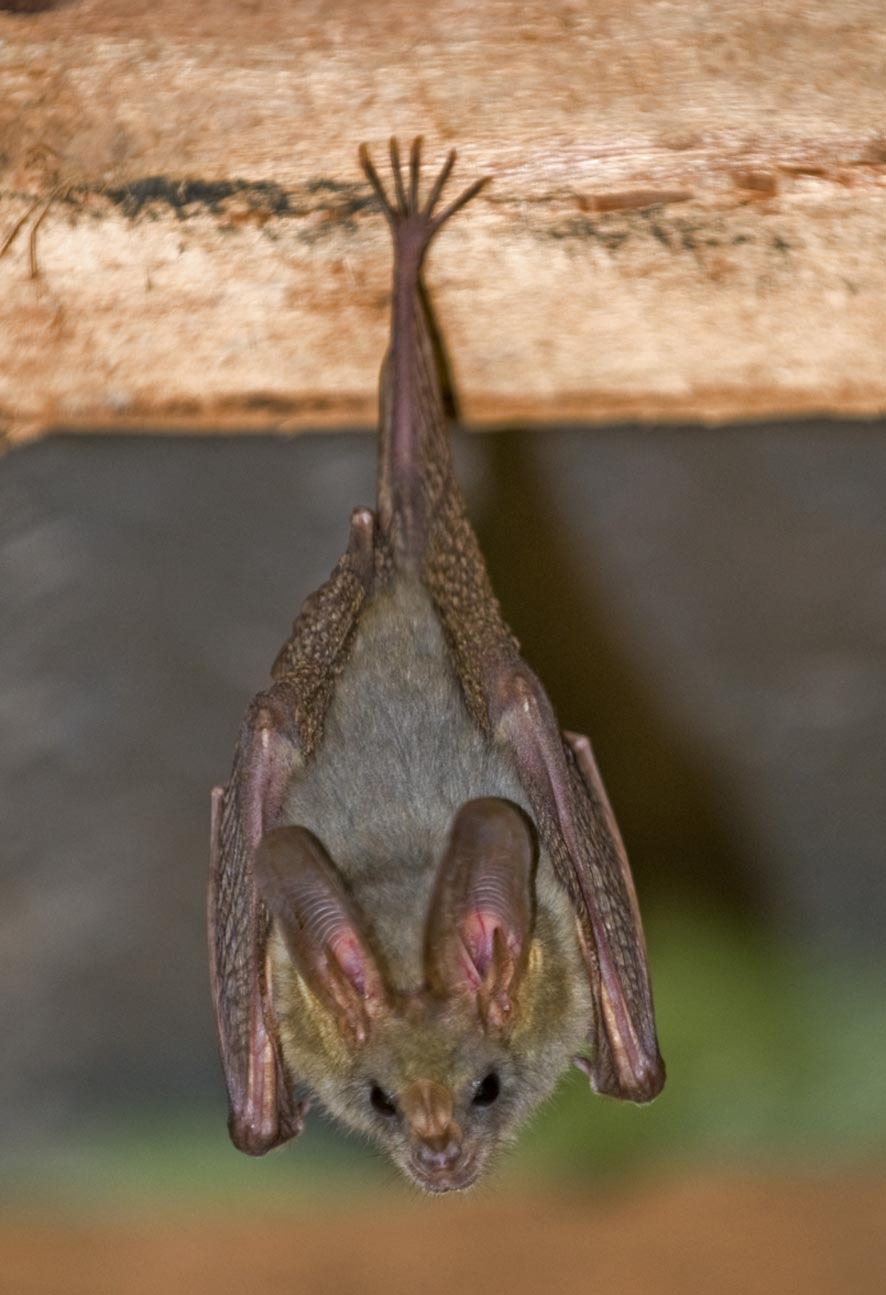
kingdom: Animalia
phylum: Chordata
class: Mammalia
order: Chiroptera
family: Megadermatidae
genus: Cardioderma
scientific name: Cardioderma cor
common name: Heart-nosed bat
